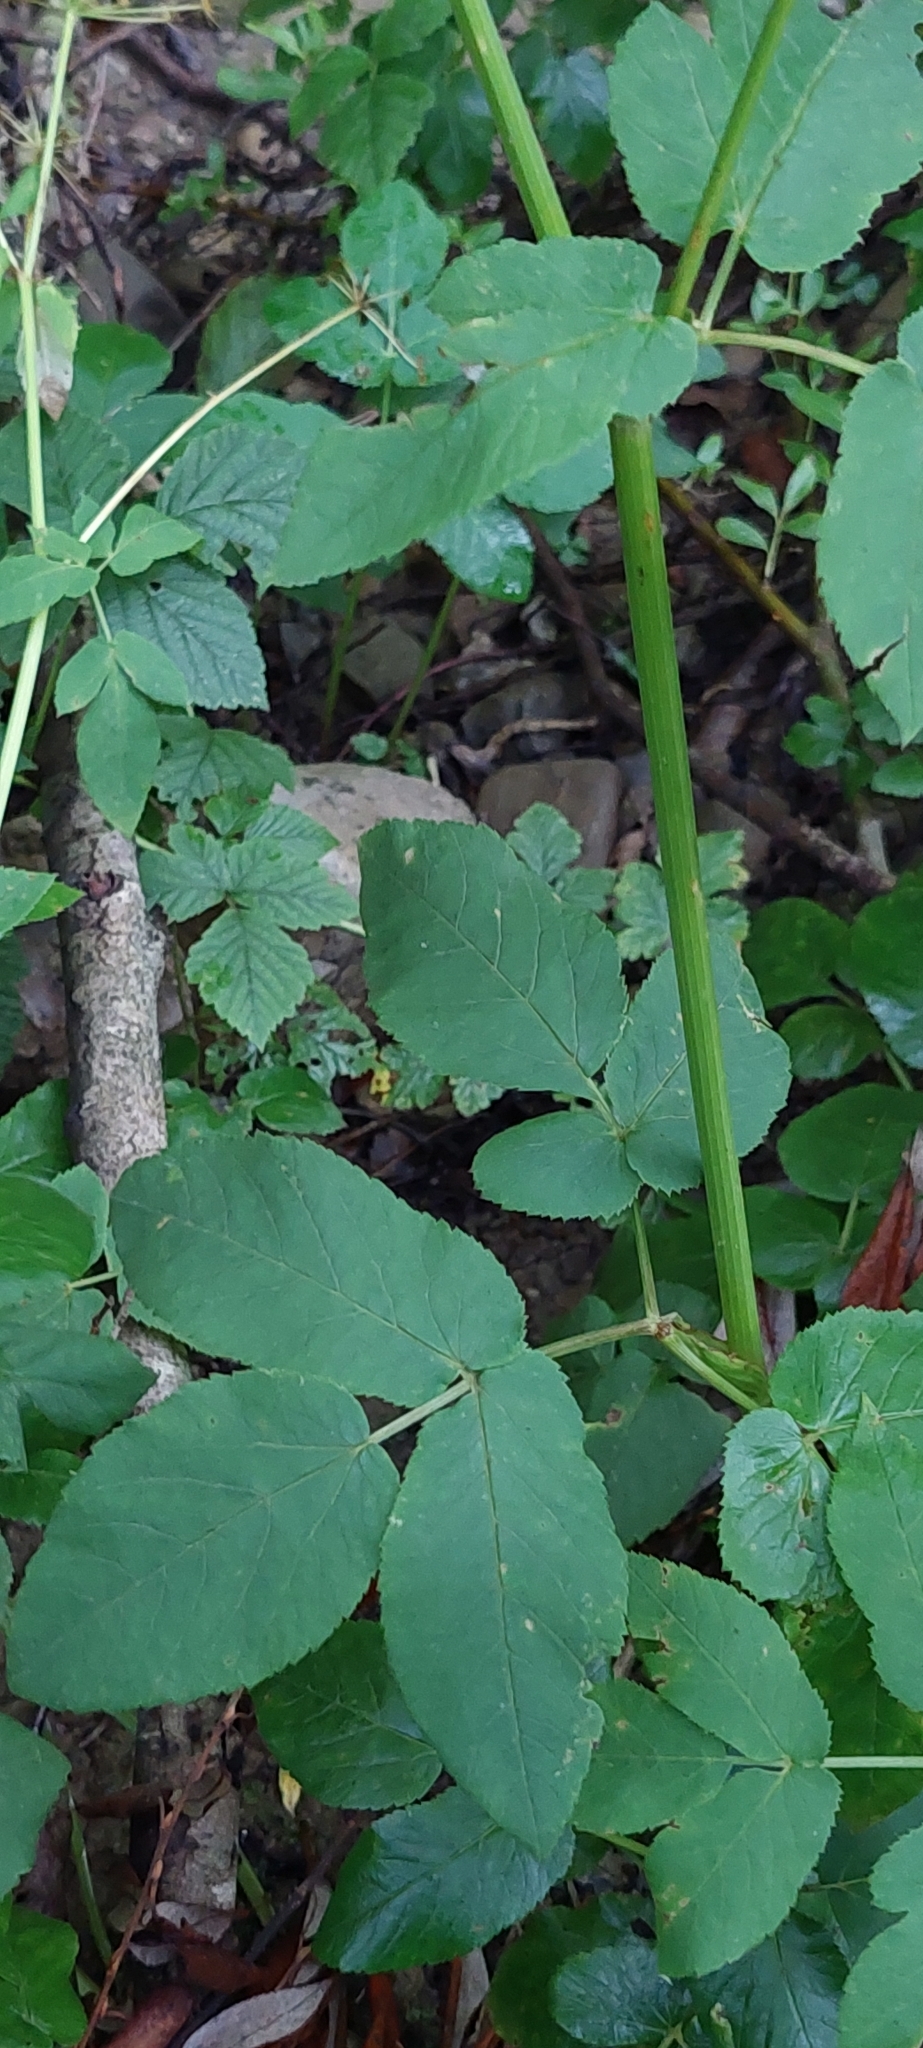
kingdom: Plantae
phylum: Tracheophyta
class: Magnoliopsida
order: Apiales
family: Apiaceae
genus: Aegopodium
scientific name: Aegopodium podagraria
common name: Ground-elder
